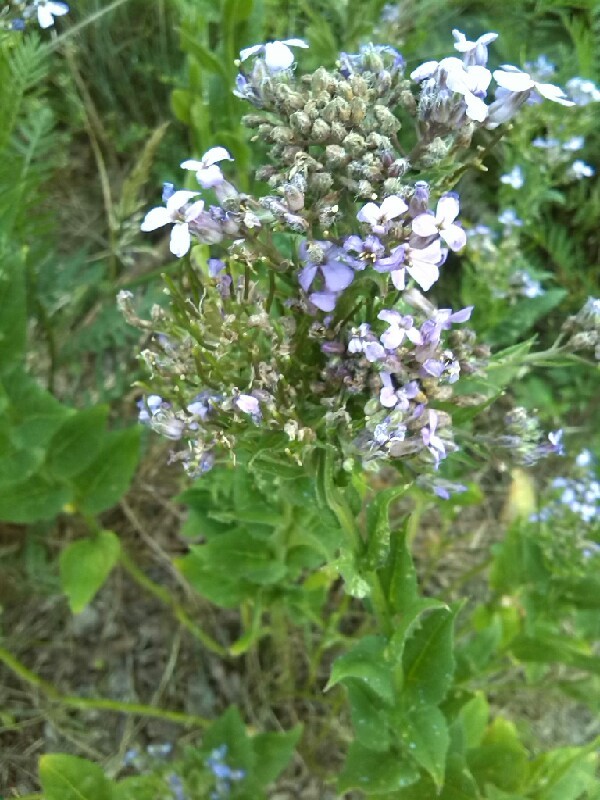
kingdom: Plantae
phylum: Tracheophyta
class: Magnoliopsida
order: Brassicales
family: Brassicaceae
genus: Hesperis
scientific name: Hesperis matronalis
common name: Dame's-violet
